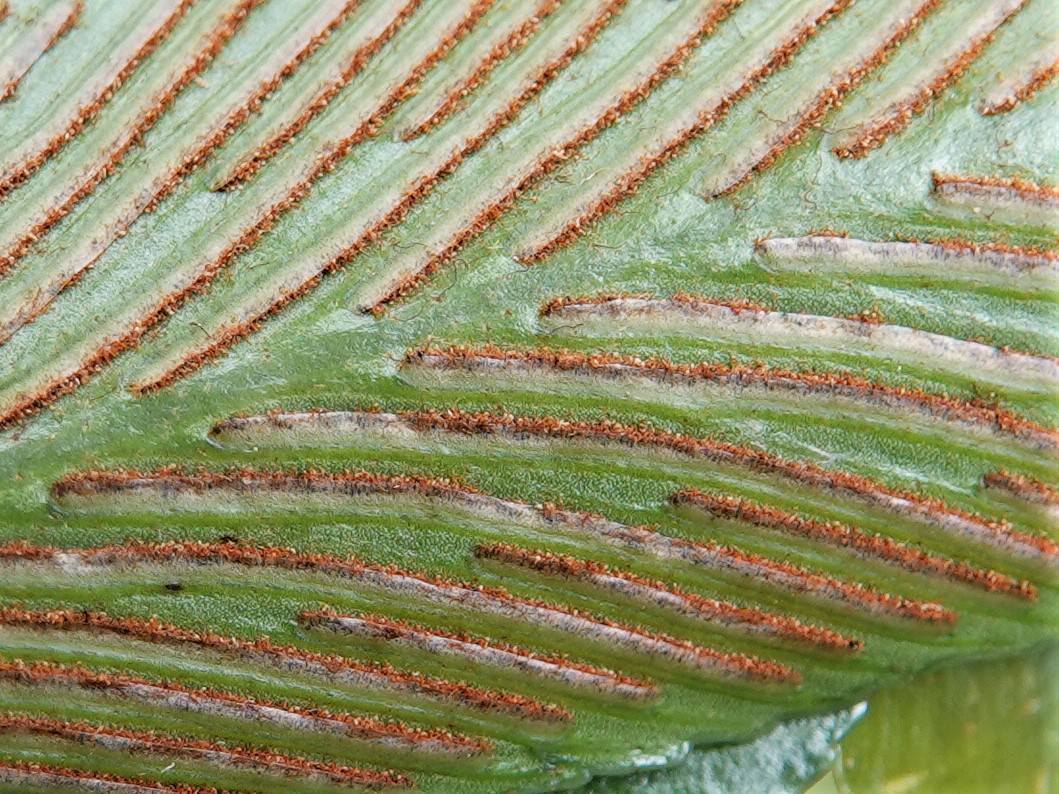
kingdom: Plantae
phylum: Tracheophyta
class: Polypodiopsida
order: Polypodiales
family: Aspleniaceae
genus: Asplenium
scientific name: Asplenium oblongifolium
